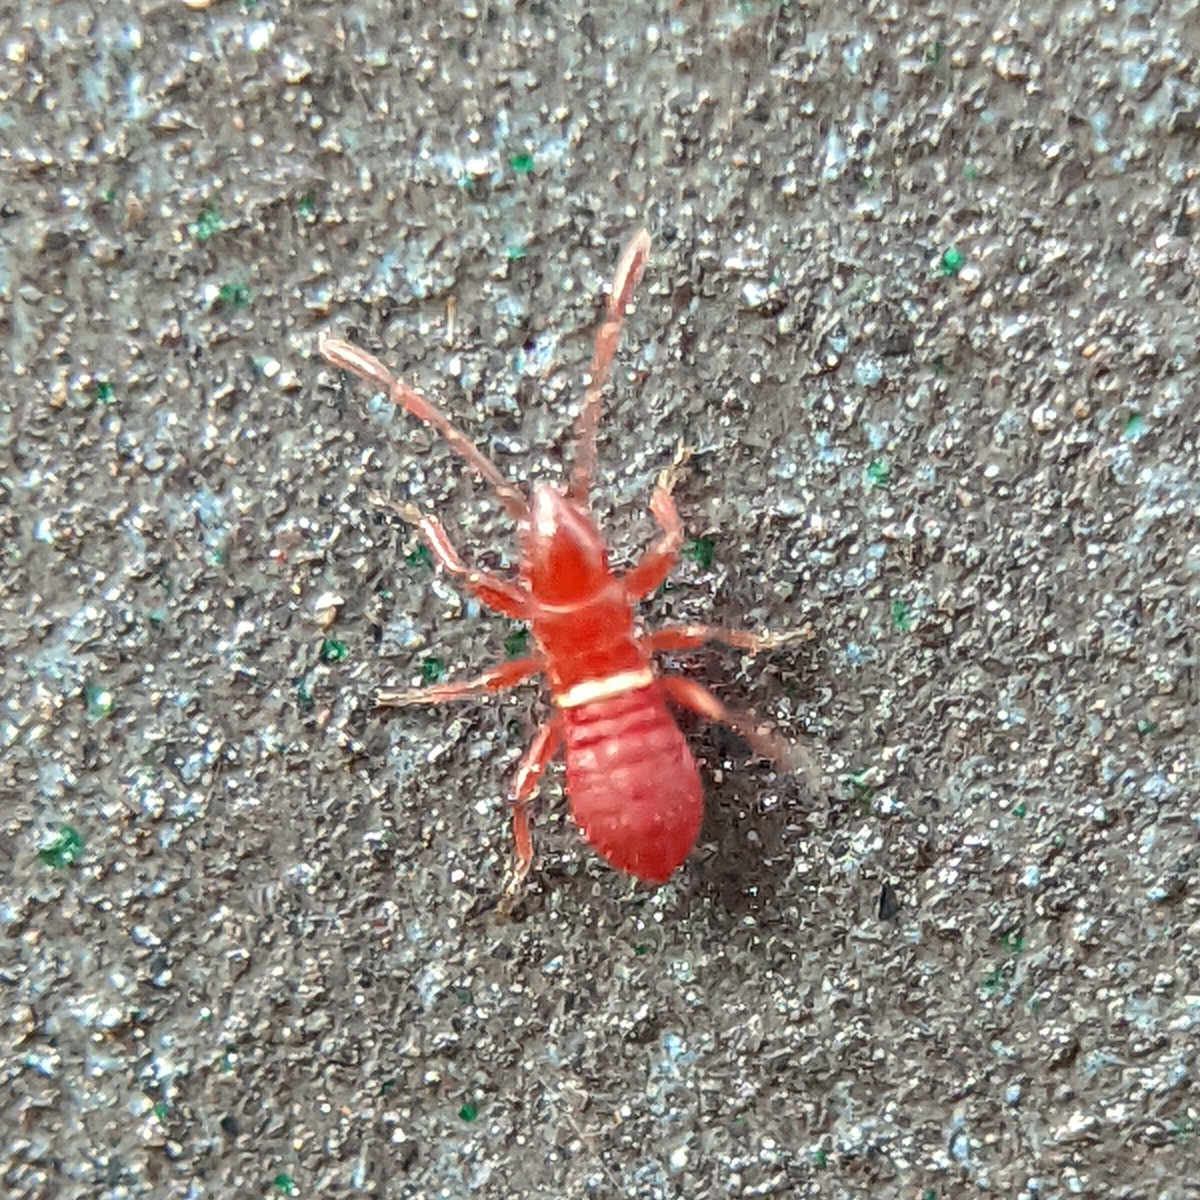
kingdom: Animalia
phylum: Arthropoda
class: Insecta
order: Hemiptera
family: Oxycarenidae
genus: Oxycarenus
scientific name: Oxycarenus lavaterae
